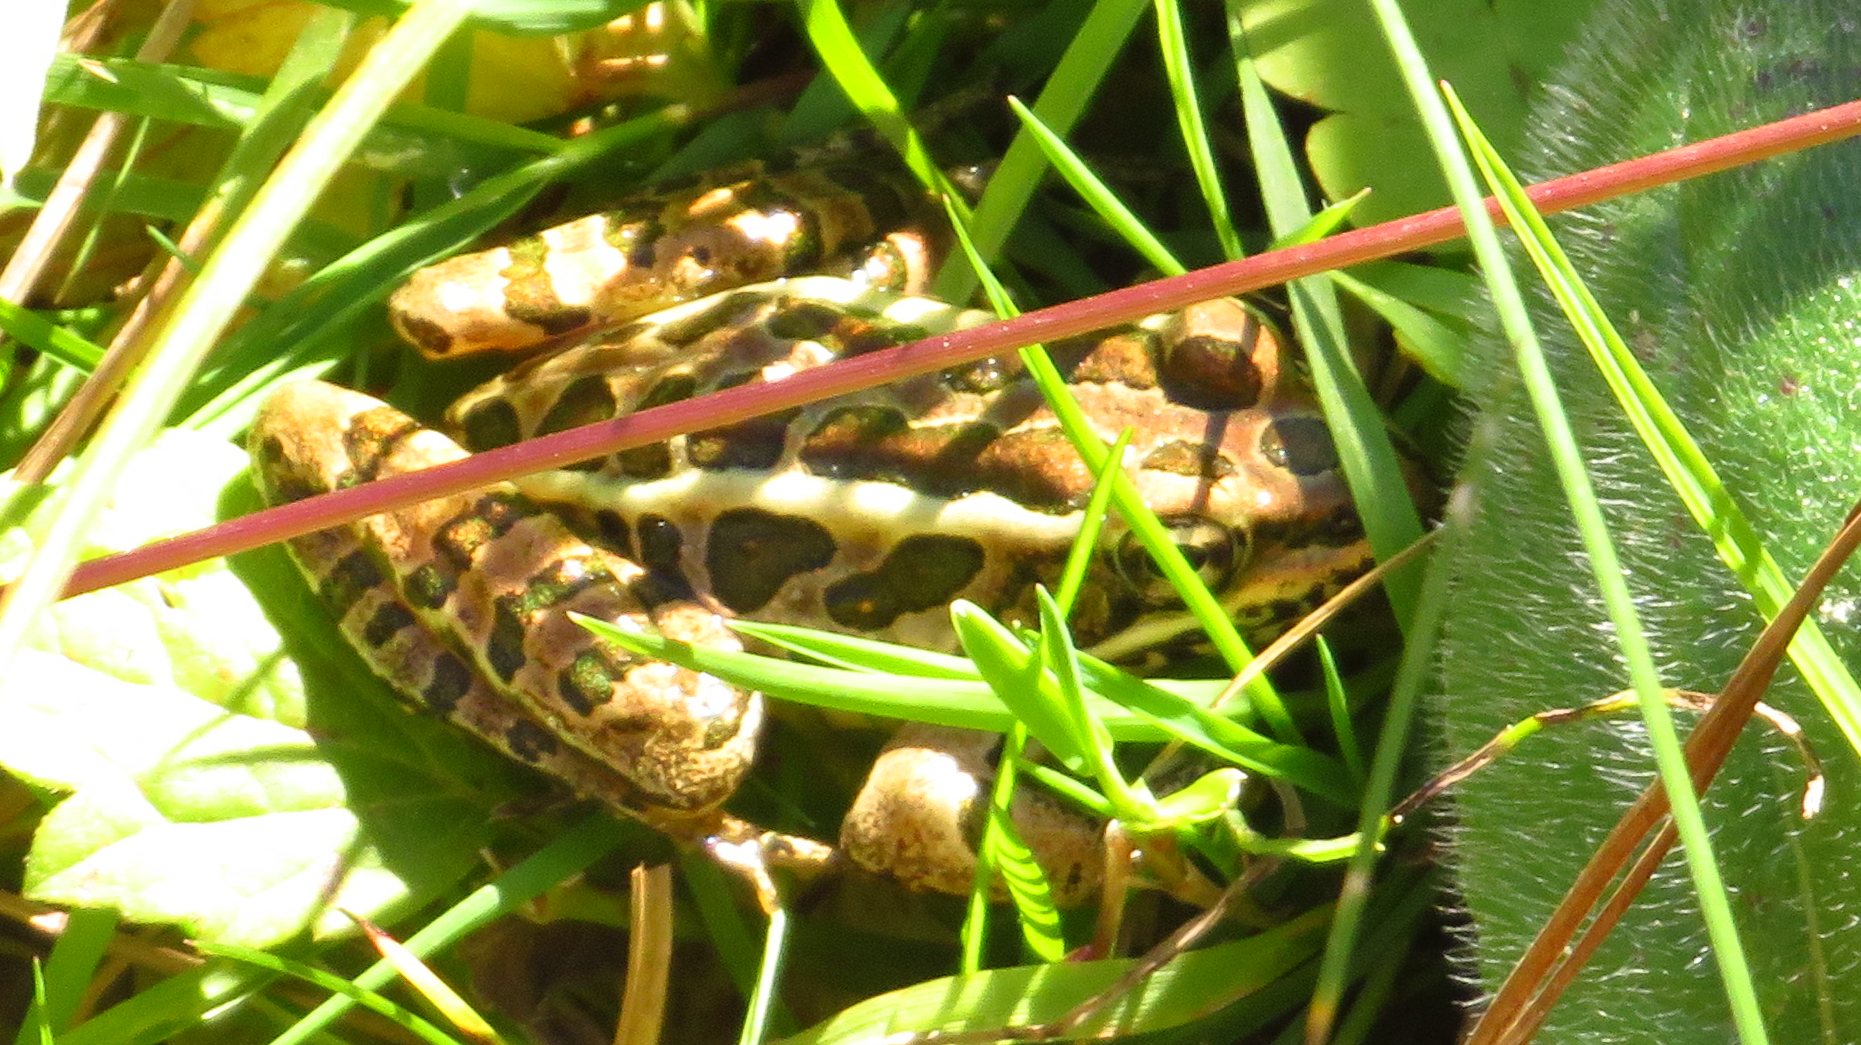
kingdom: Animalia
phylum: Chordata
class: Amphibia
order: Anura
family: Ranidae
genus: Lithobates
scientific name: Lithobates palustris
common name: Pickerel frog
